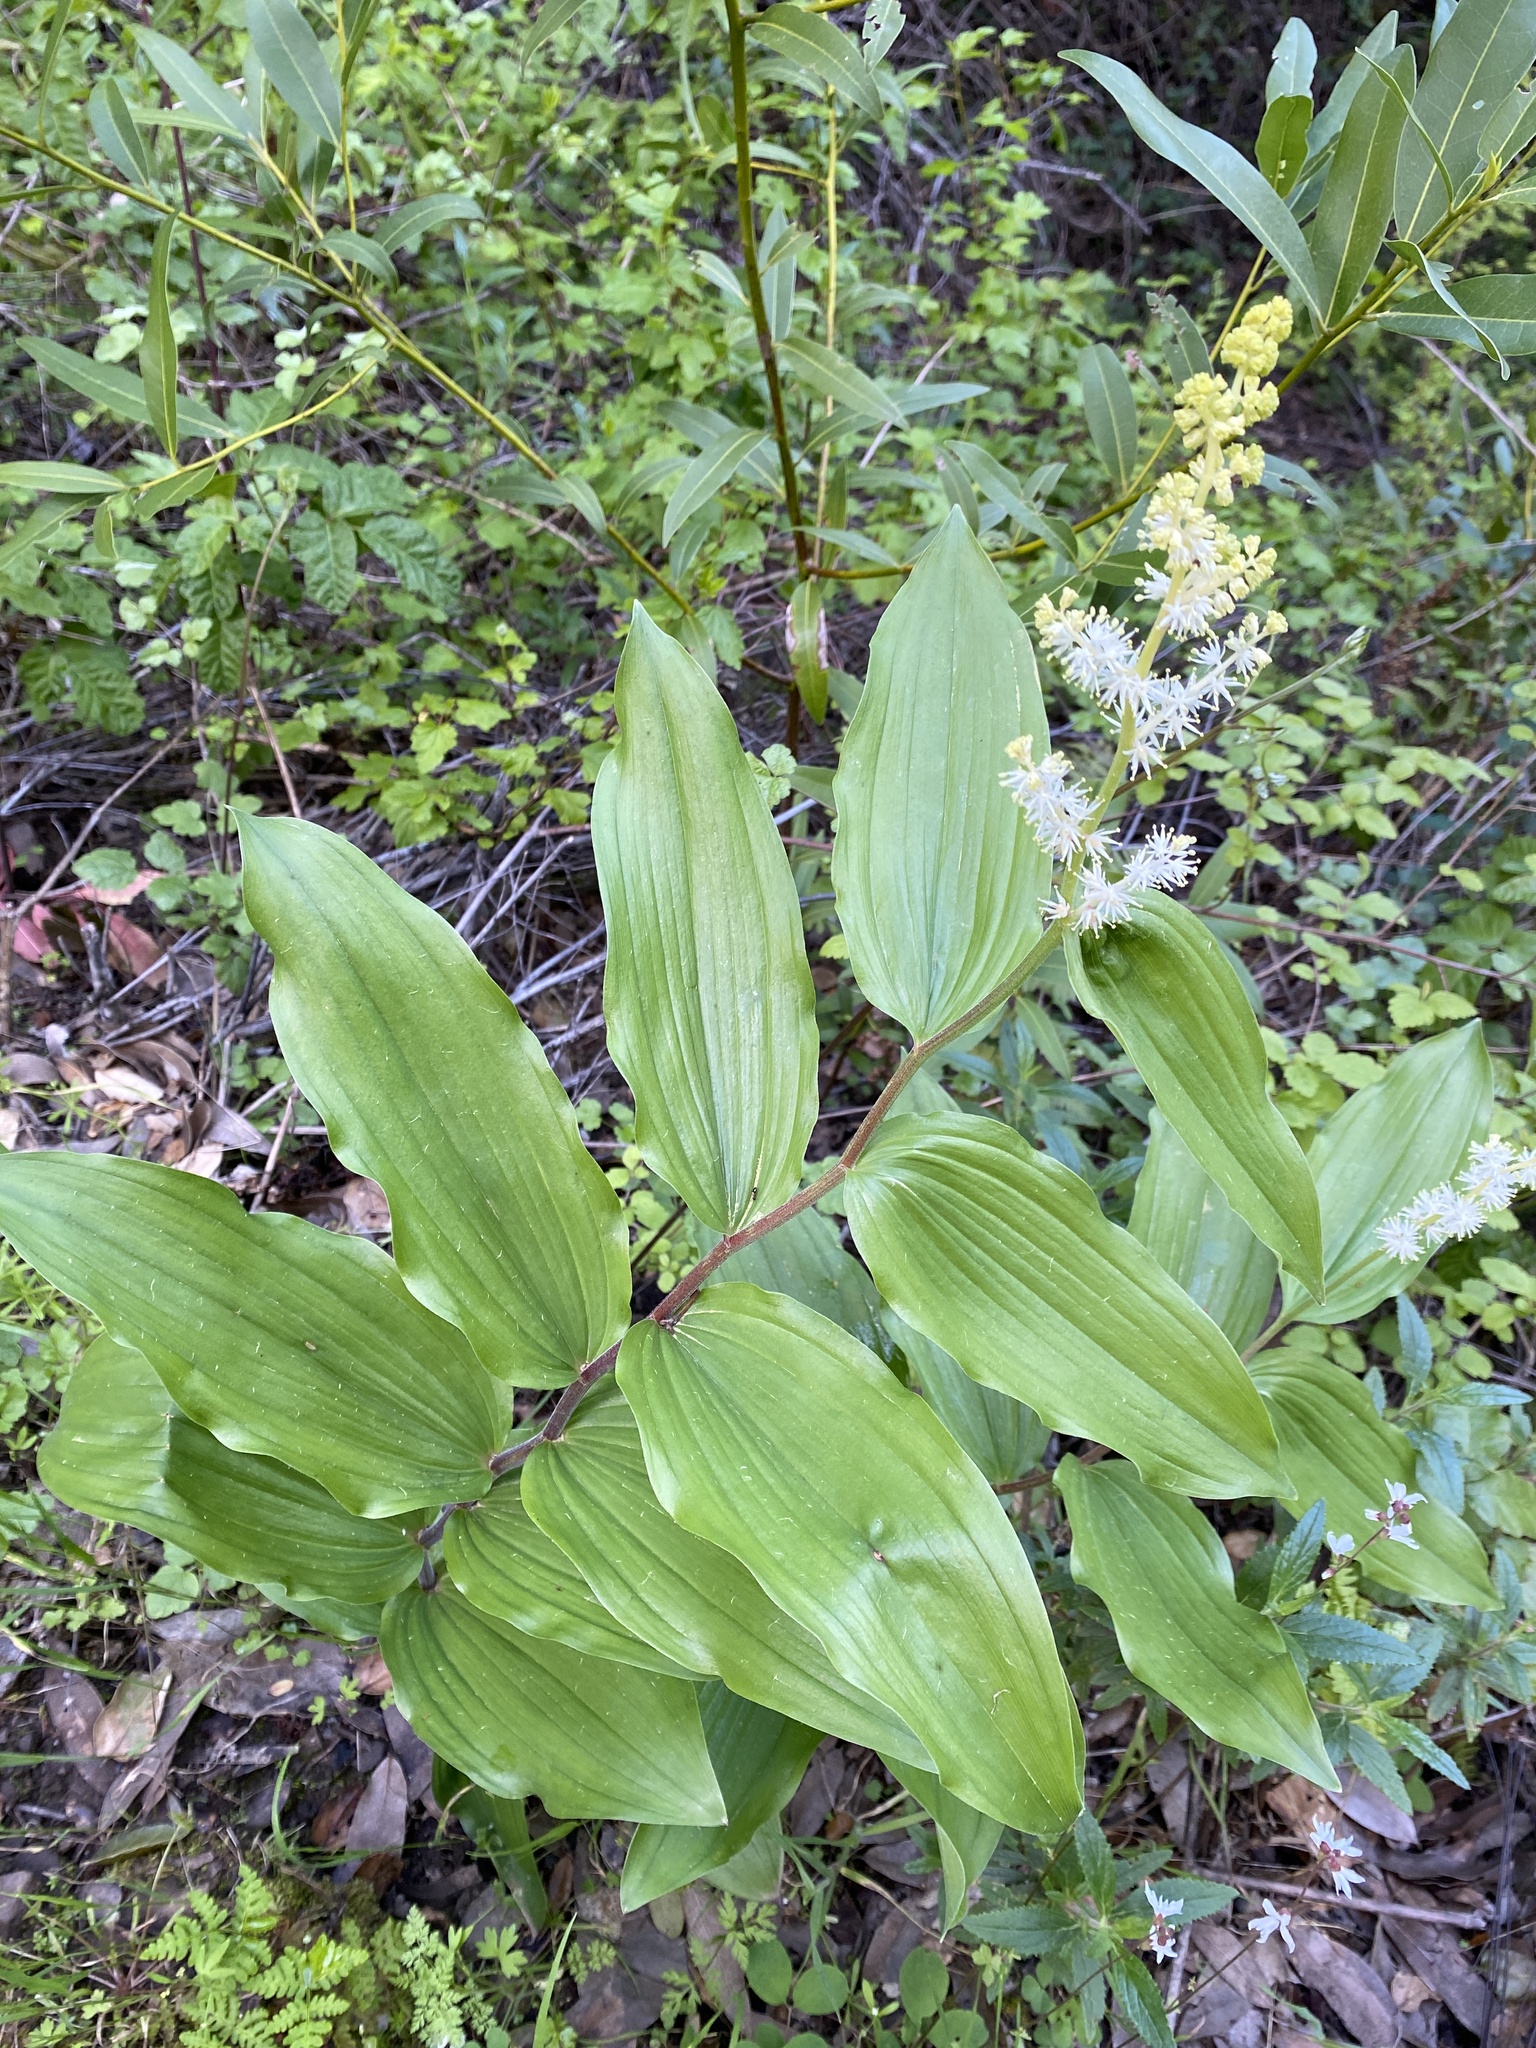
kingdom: Plantae
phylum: Tracheophyta
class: Liliopsida
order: Asparagales
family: Asparagaceae
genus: Maianthemum
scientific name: Maianthemum racemosum
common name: False spikenard
